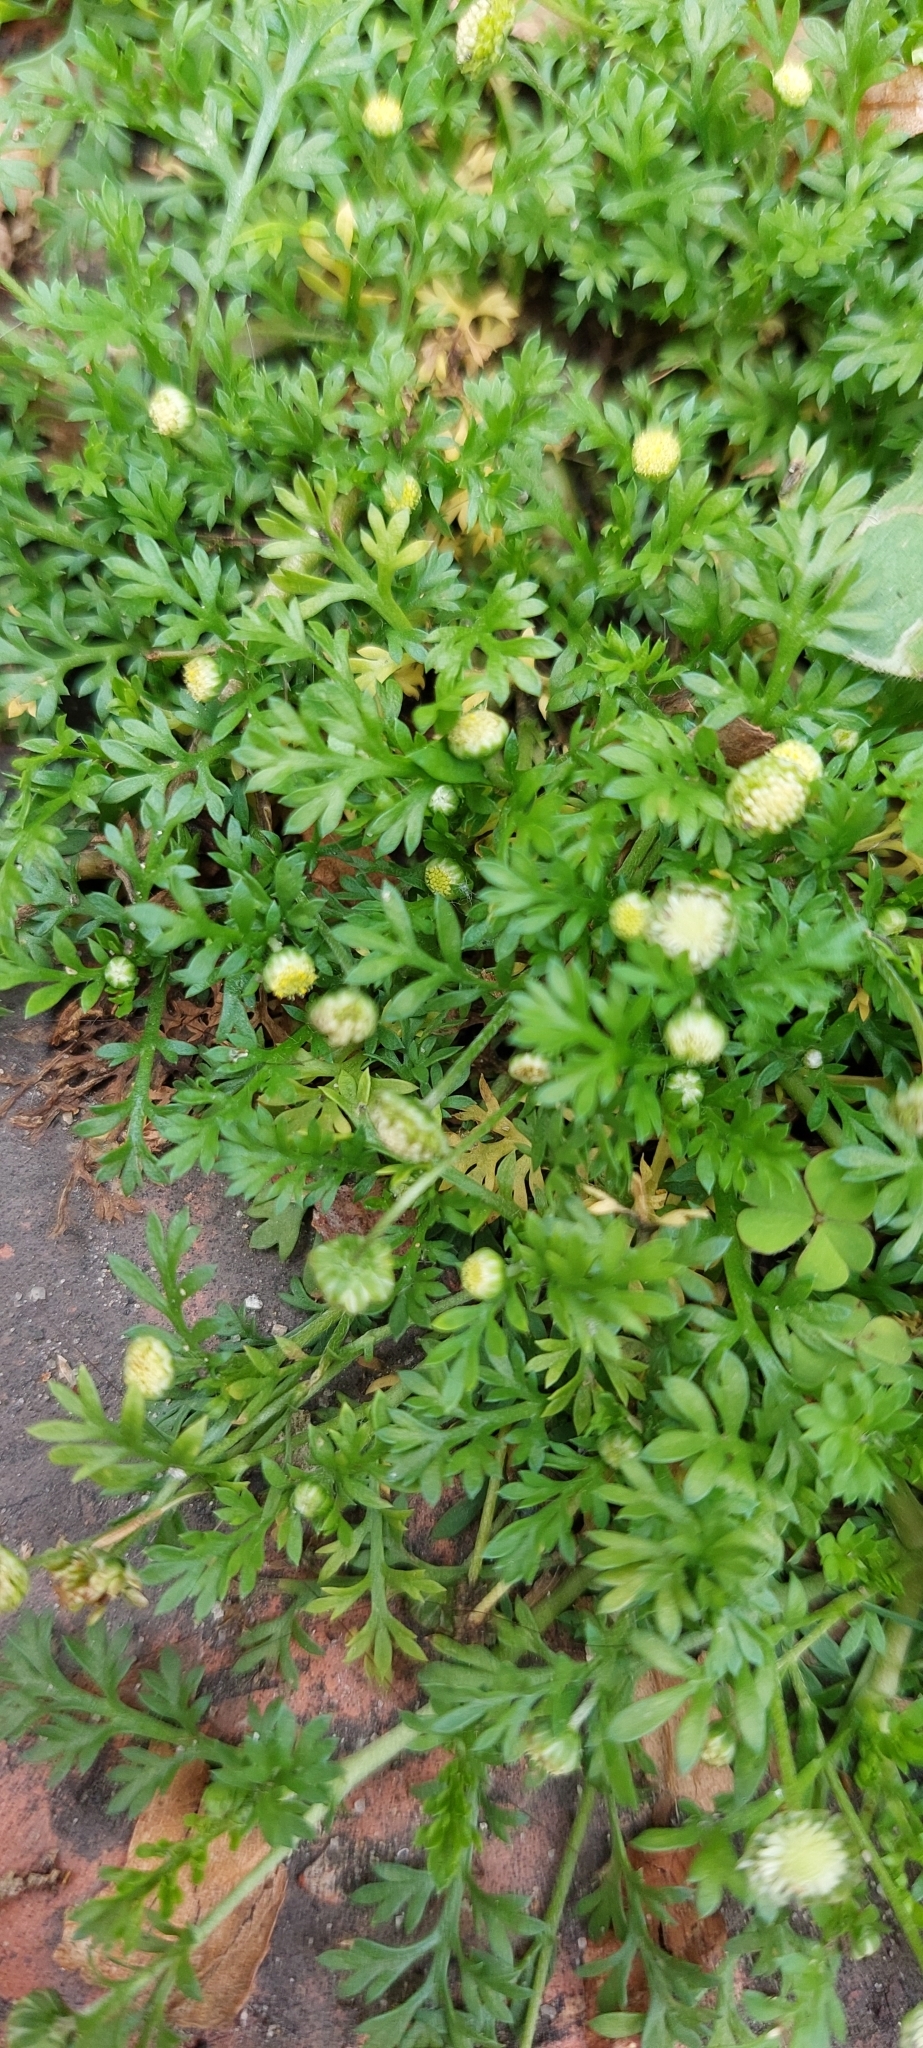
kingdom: Plantae
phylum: Tracheophyta
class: Magnoliopsida
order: Asterales
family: Asteraceae
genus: Cotula
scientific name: Cotula australis
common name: Australian waterbuttons
